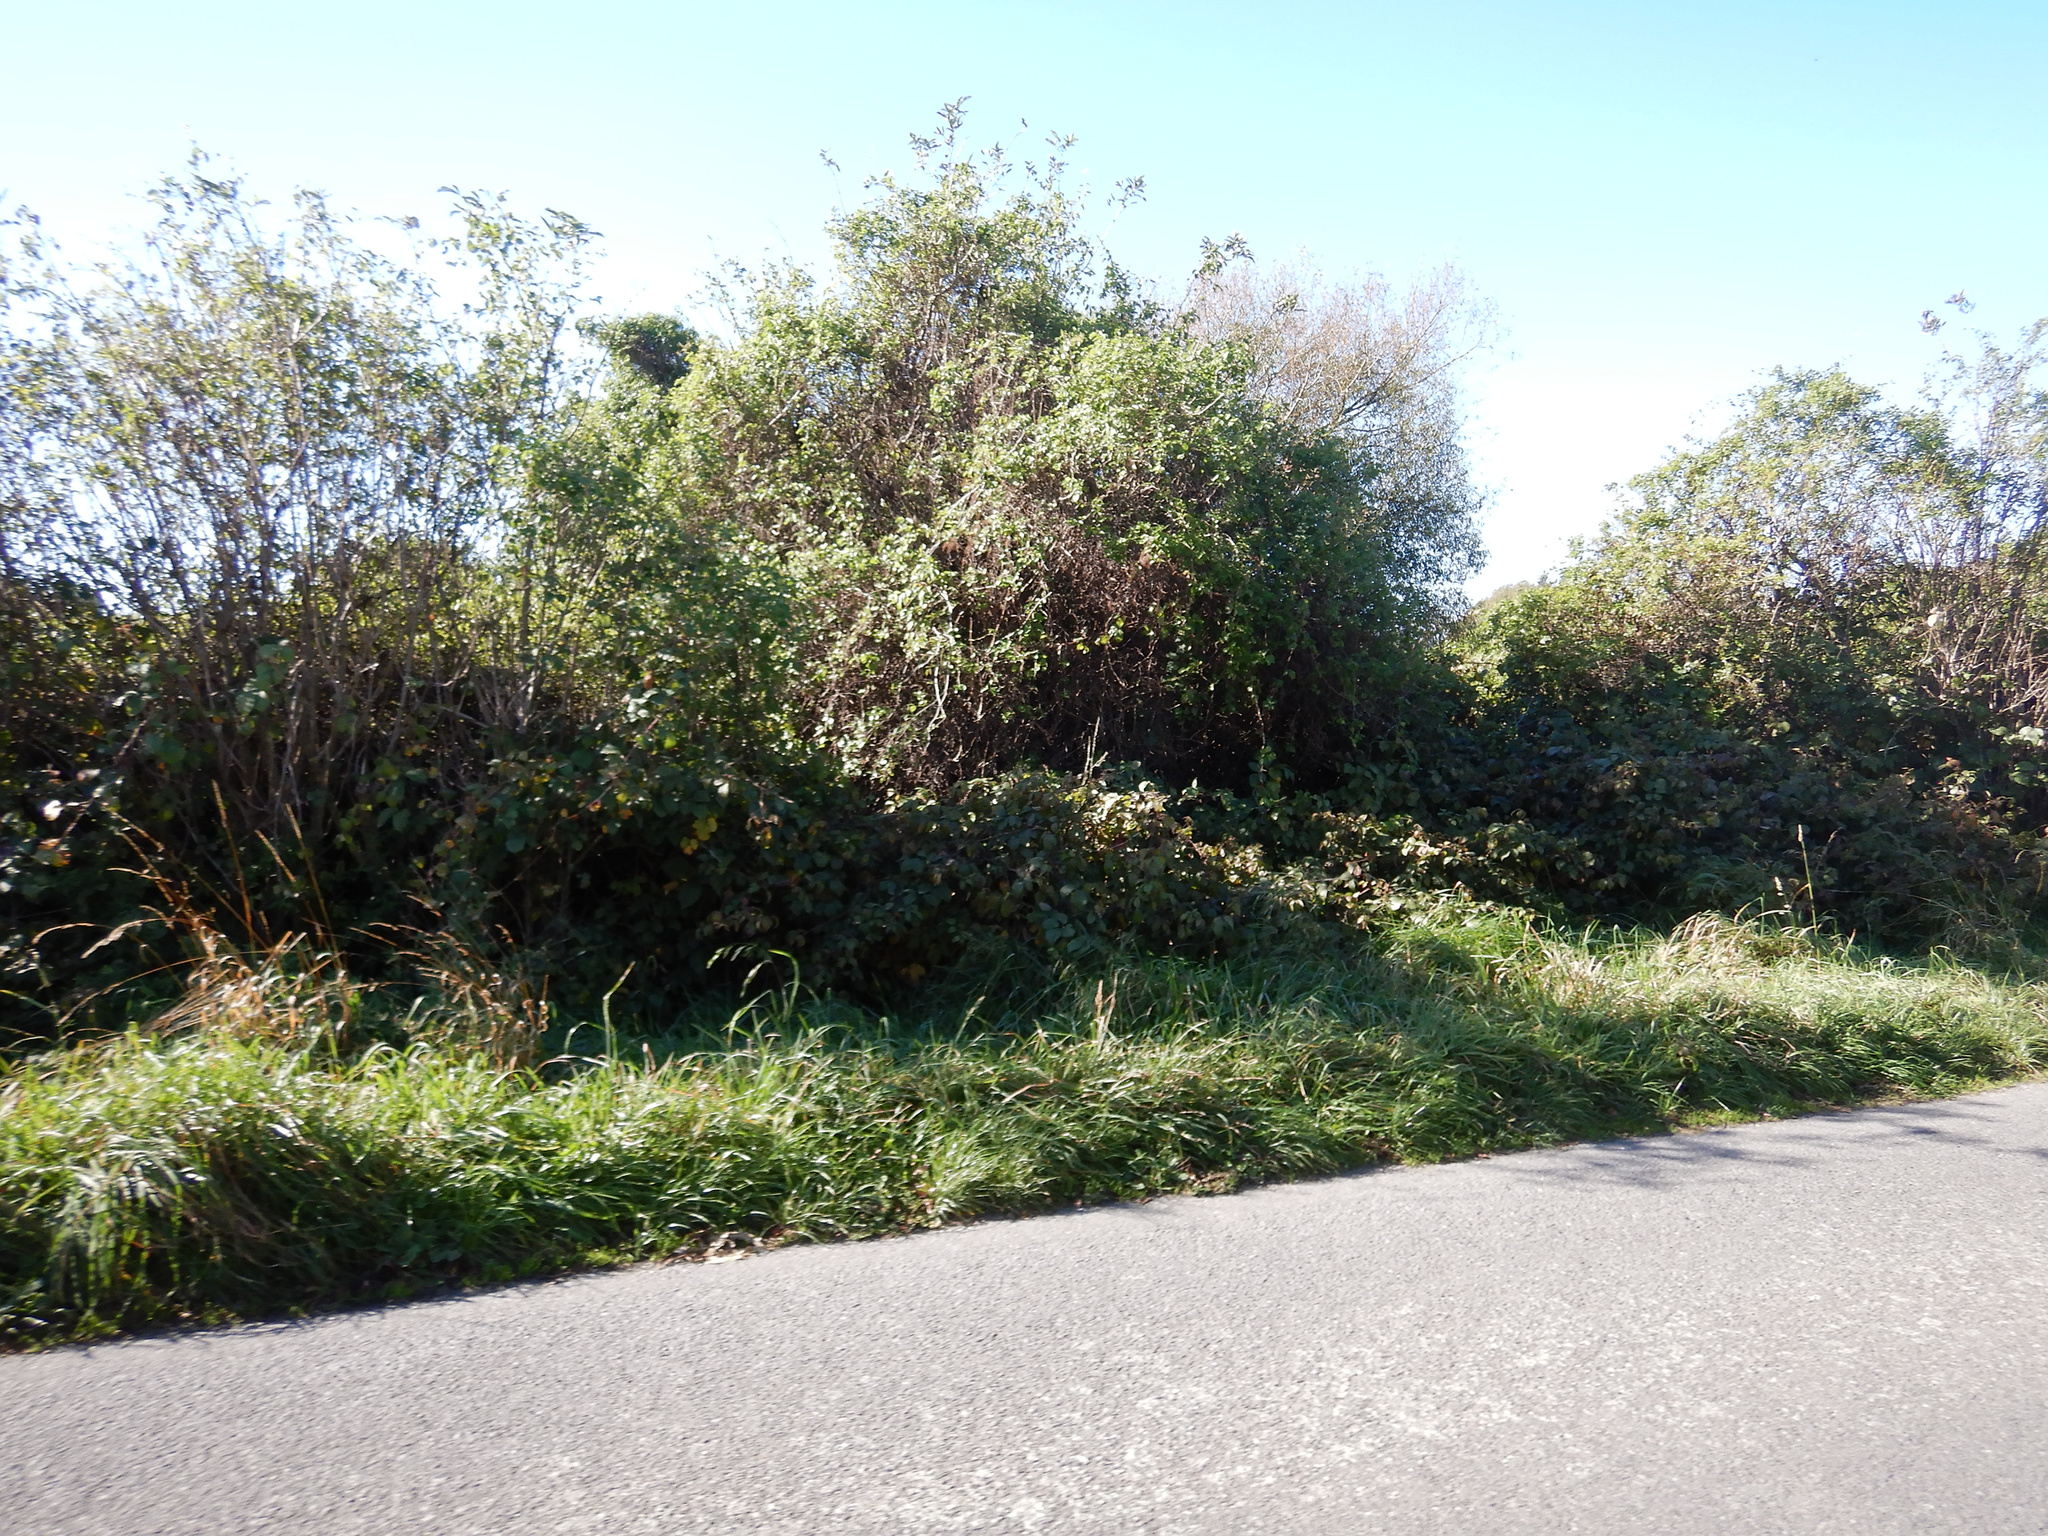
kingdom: Plantae
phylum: Tracheophyta
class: Magnoliopsida
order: Rosales
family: Rosaceae
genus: Crataegus
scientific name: Crataegus monogyna
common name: Hawthorn
